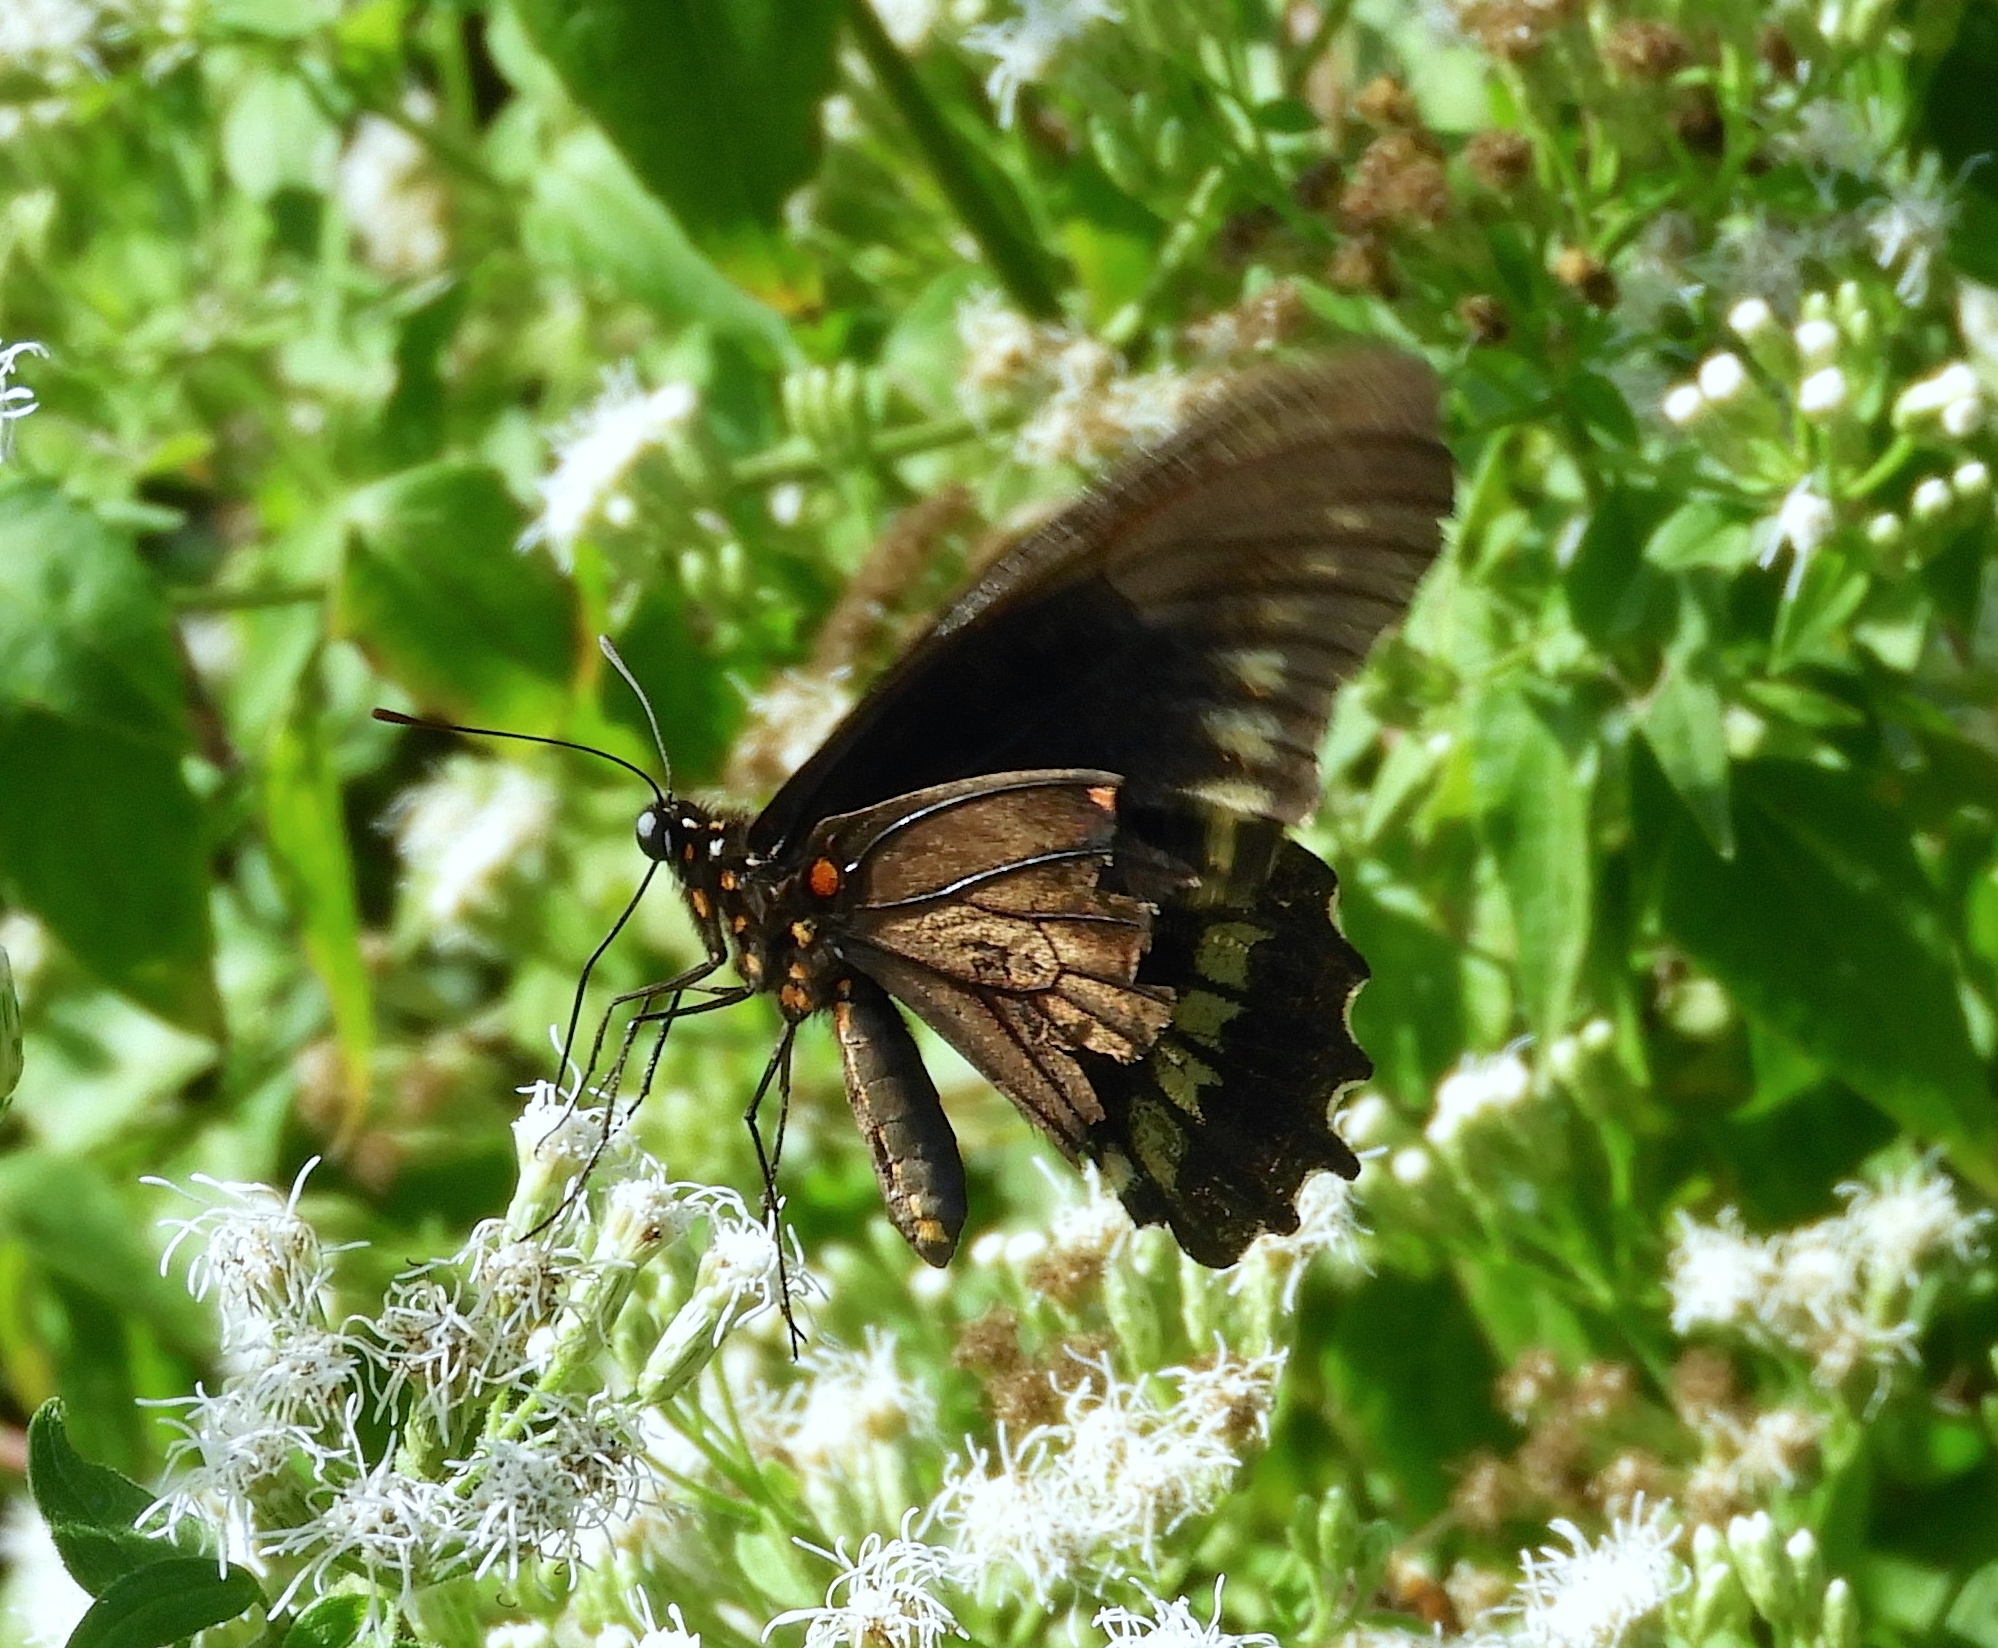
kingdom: Animalia
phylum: Arthropoda
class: Insecta
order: Lepidoptera
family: Papilionidae
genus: Battus
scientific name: Battus polydamas
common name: Polydamas swallowtail
